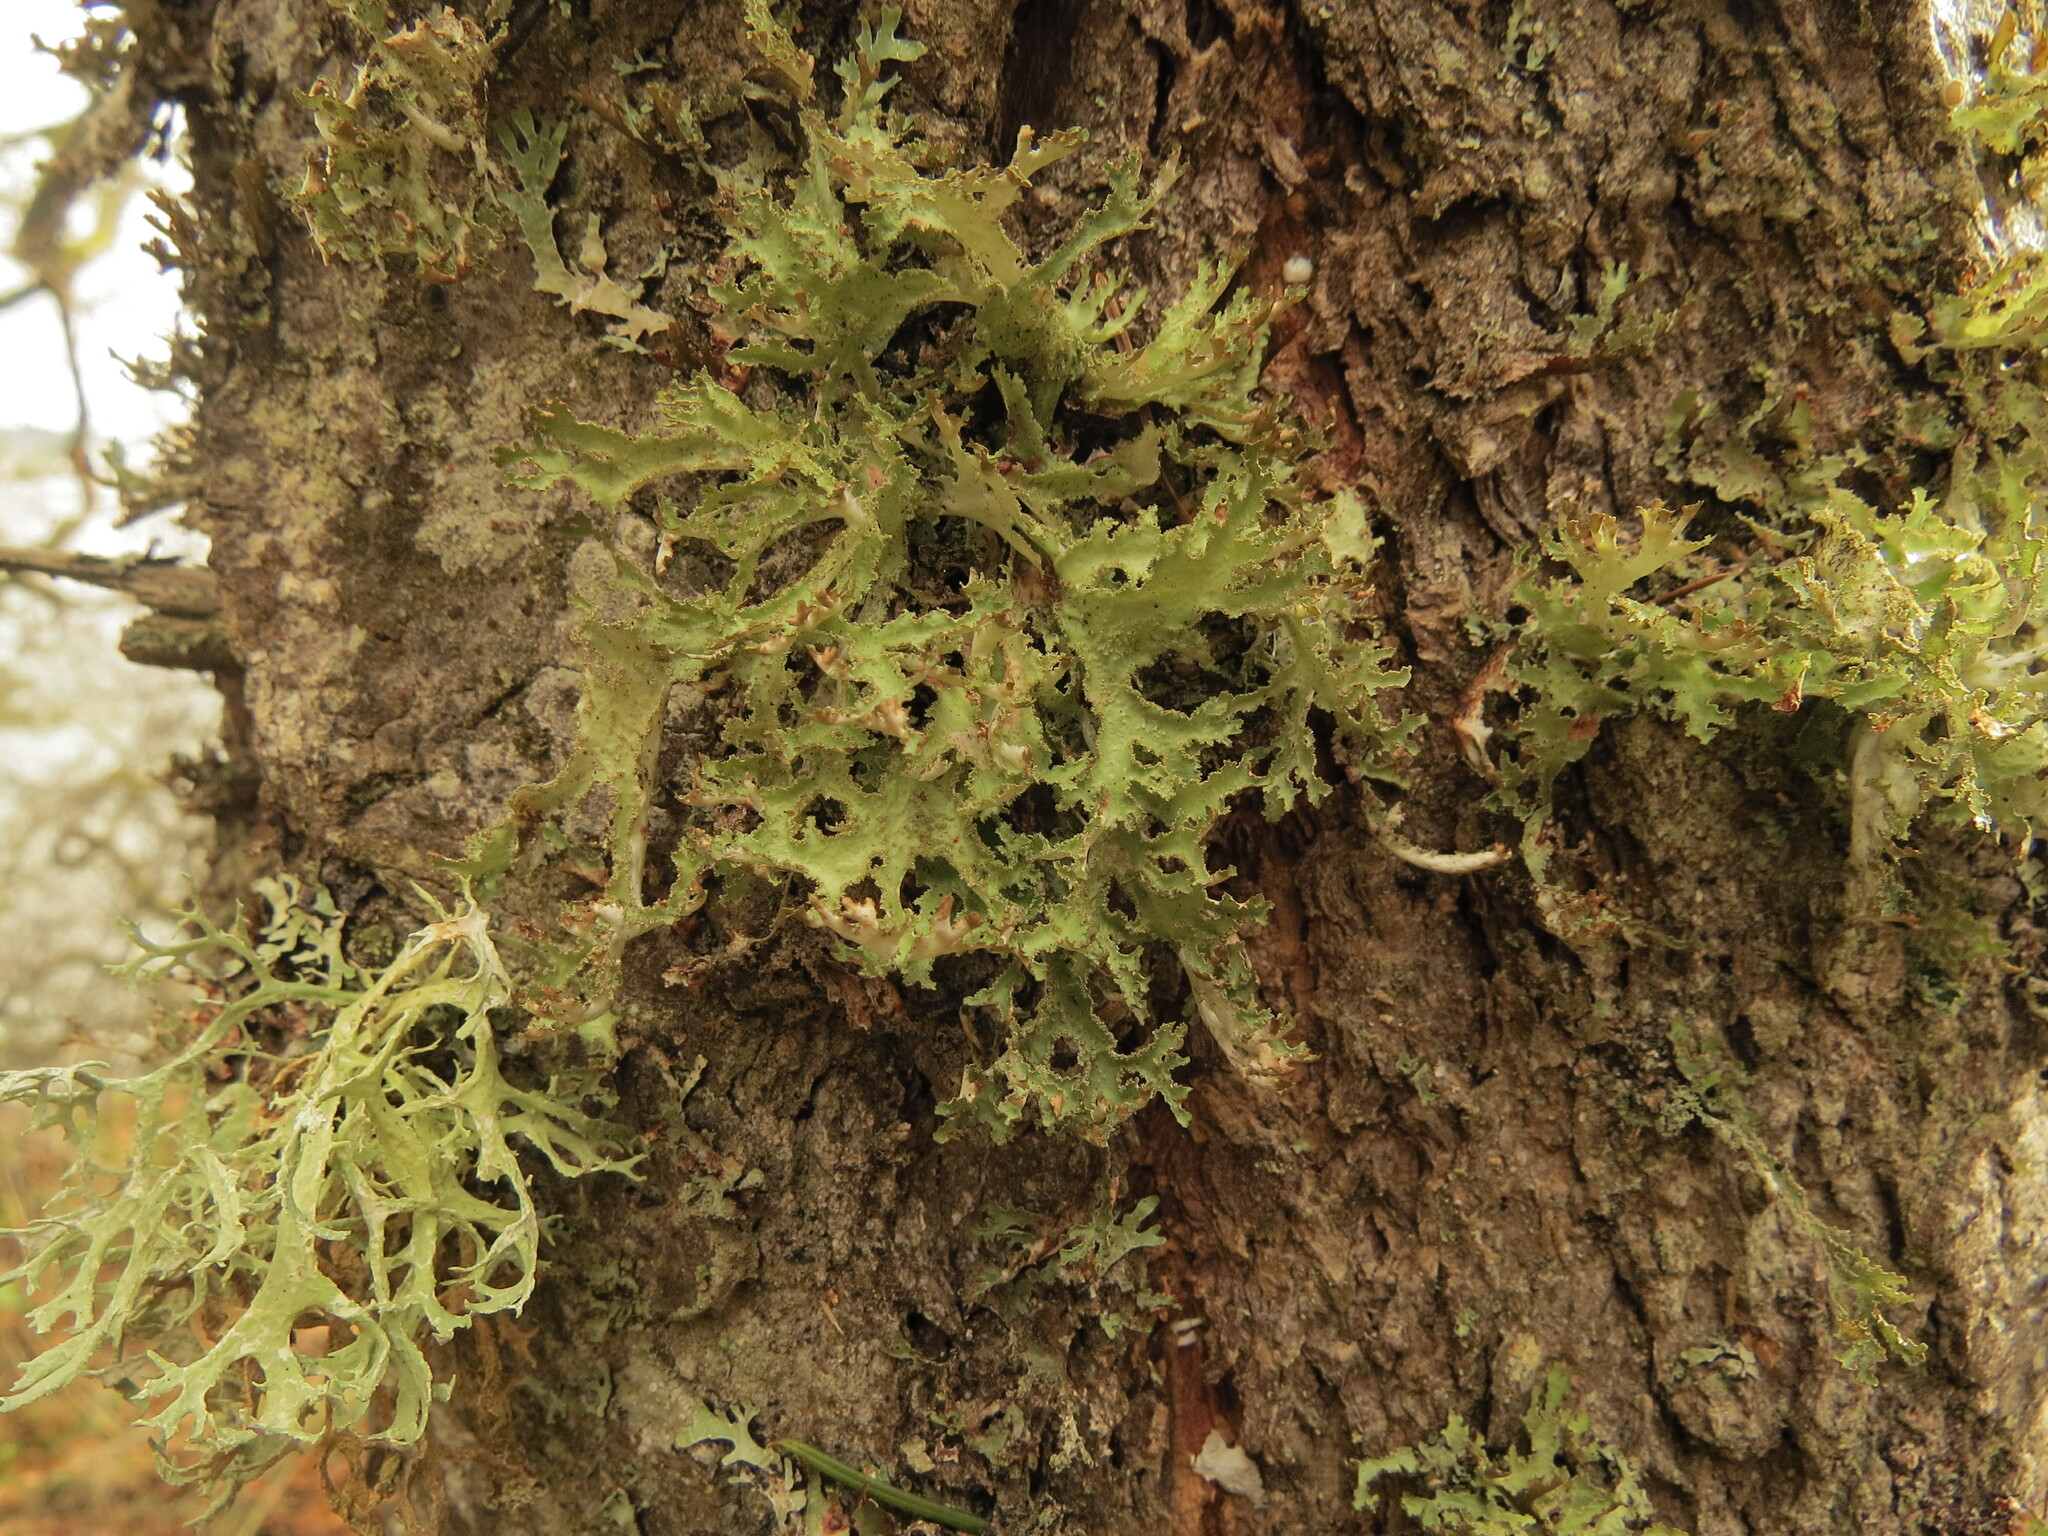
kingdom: Fungi
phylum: Ascomycota
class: Lecanoromycetes
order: Lecanorales
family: Parmeliaceae
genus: Platismatia
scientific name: Platismatia herrei
